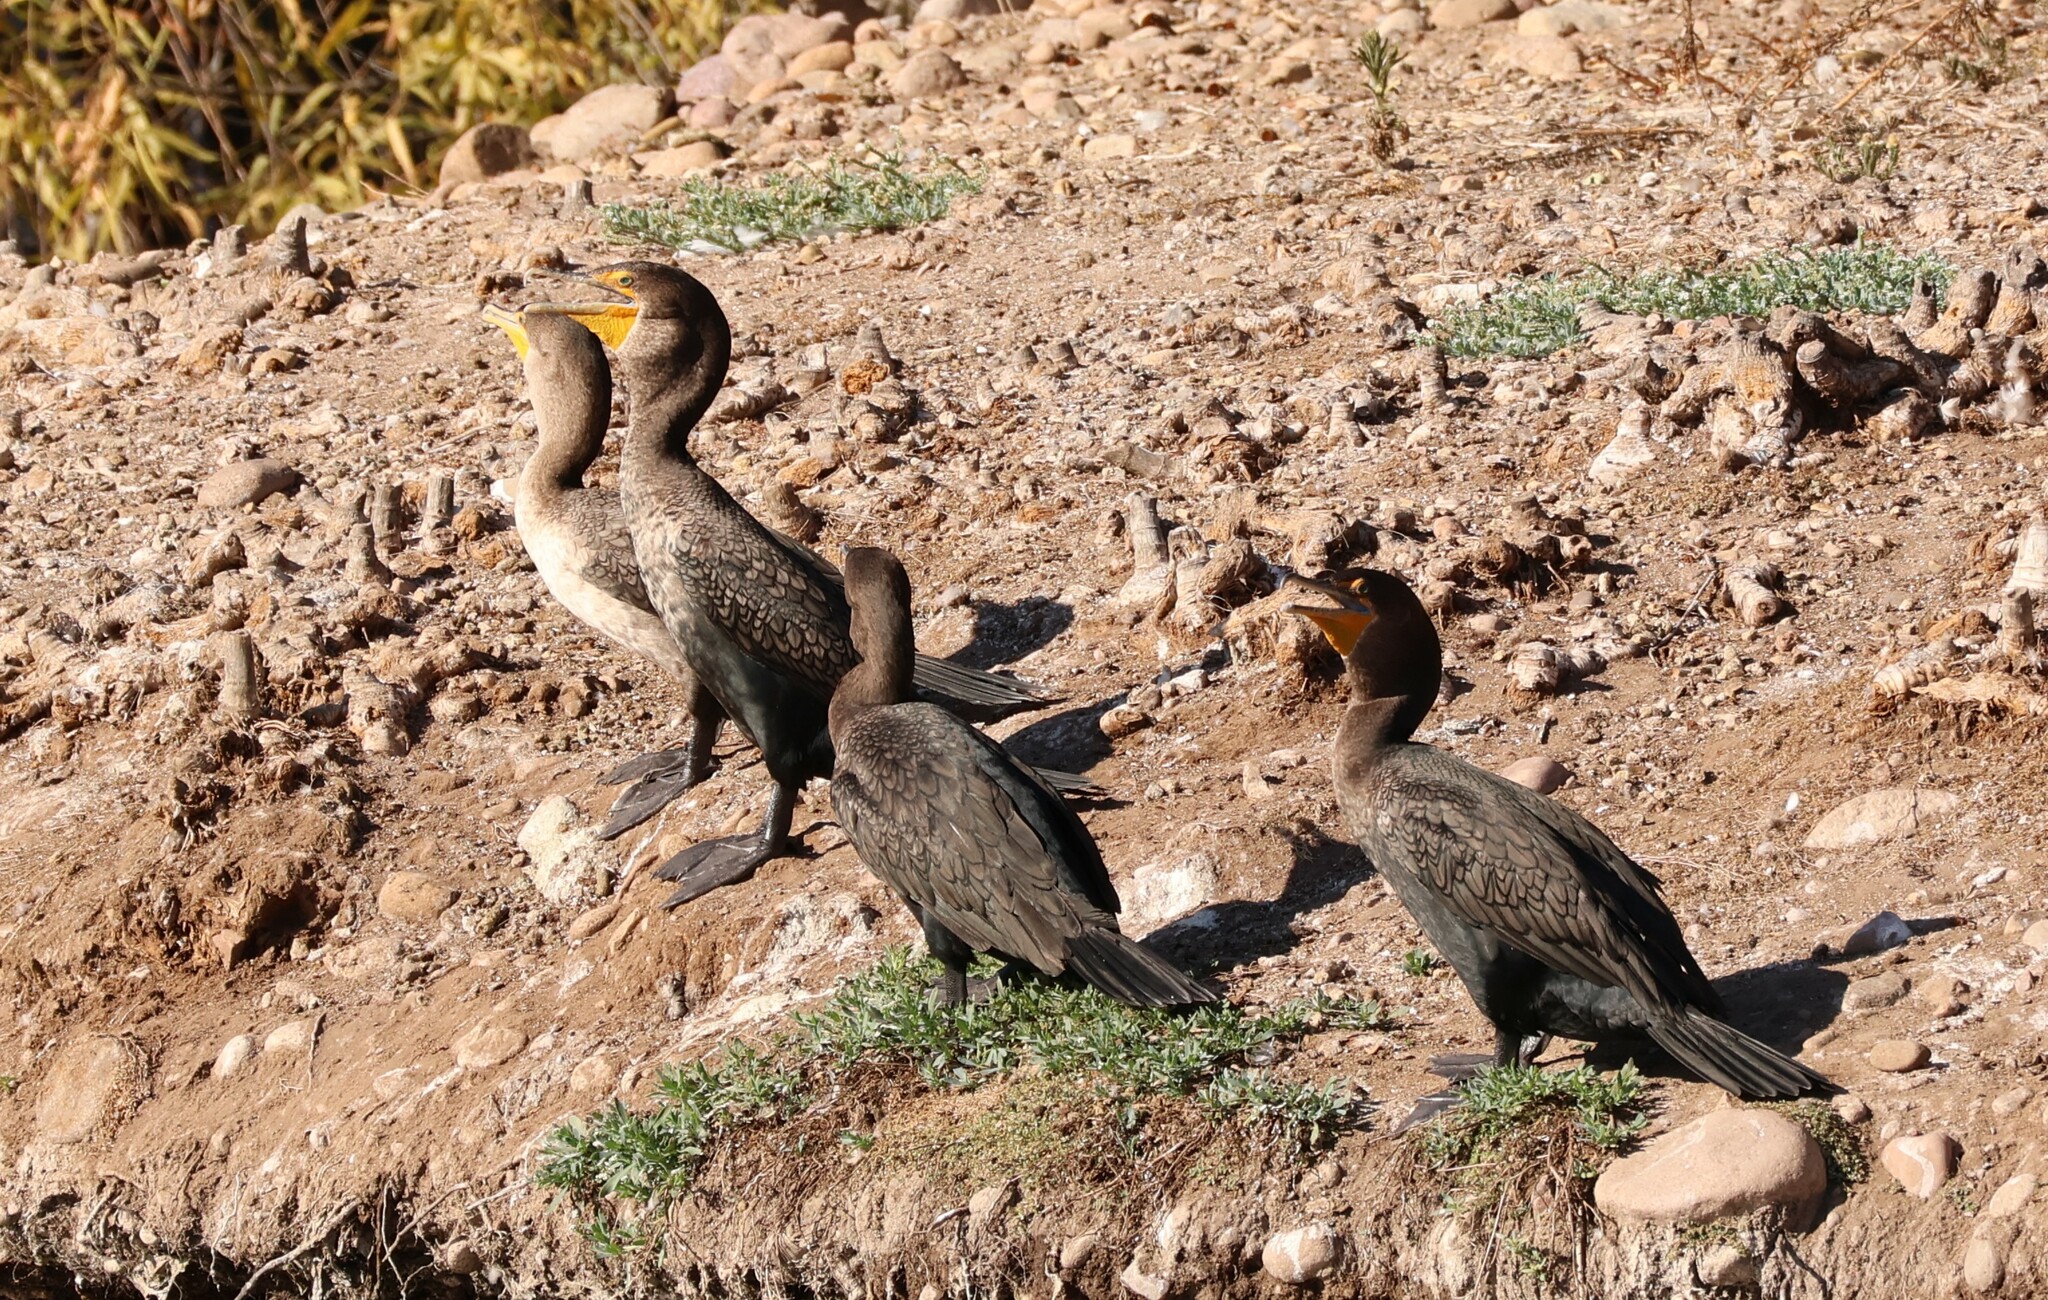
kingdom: Animalia
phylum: Chordata
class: Aves
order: Suliformes
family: Phalacrocoracidae
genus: Phalacrocorax
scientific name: Phalacrocorax auritus
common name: Double-crested cormorant
